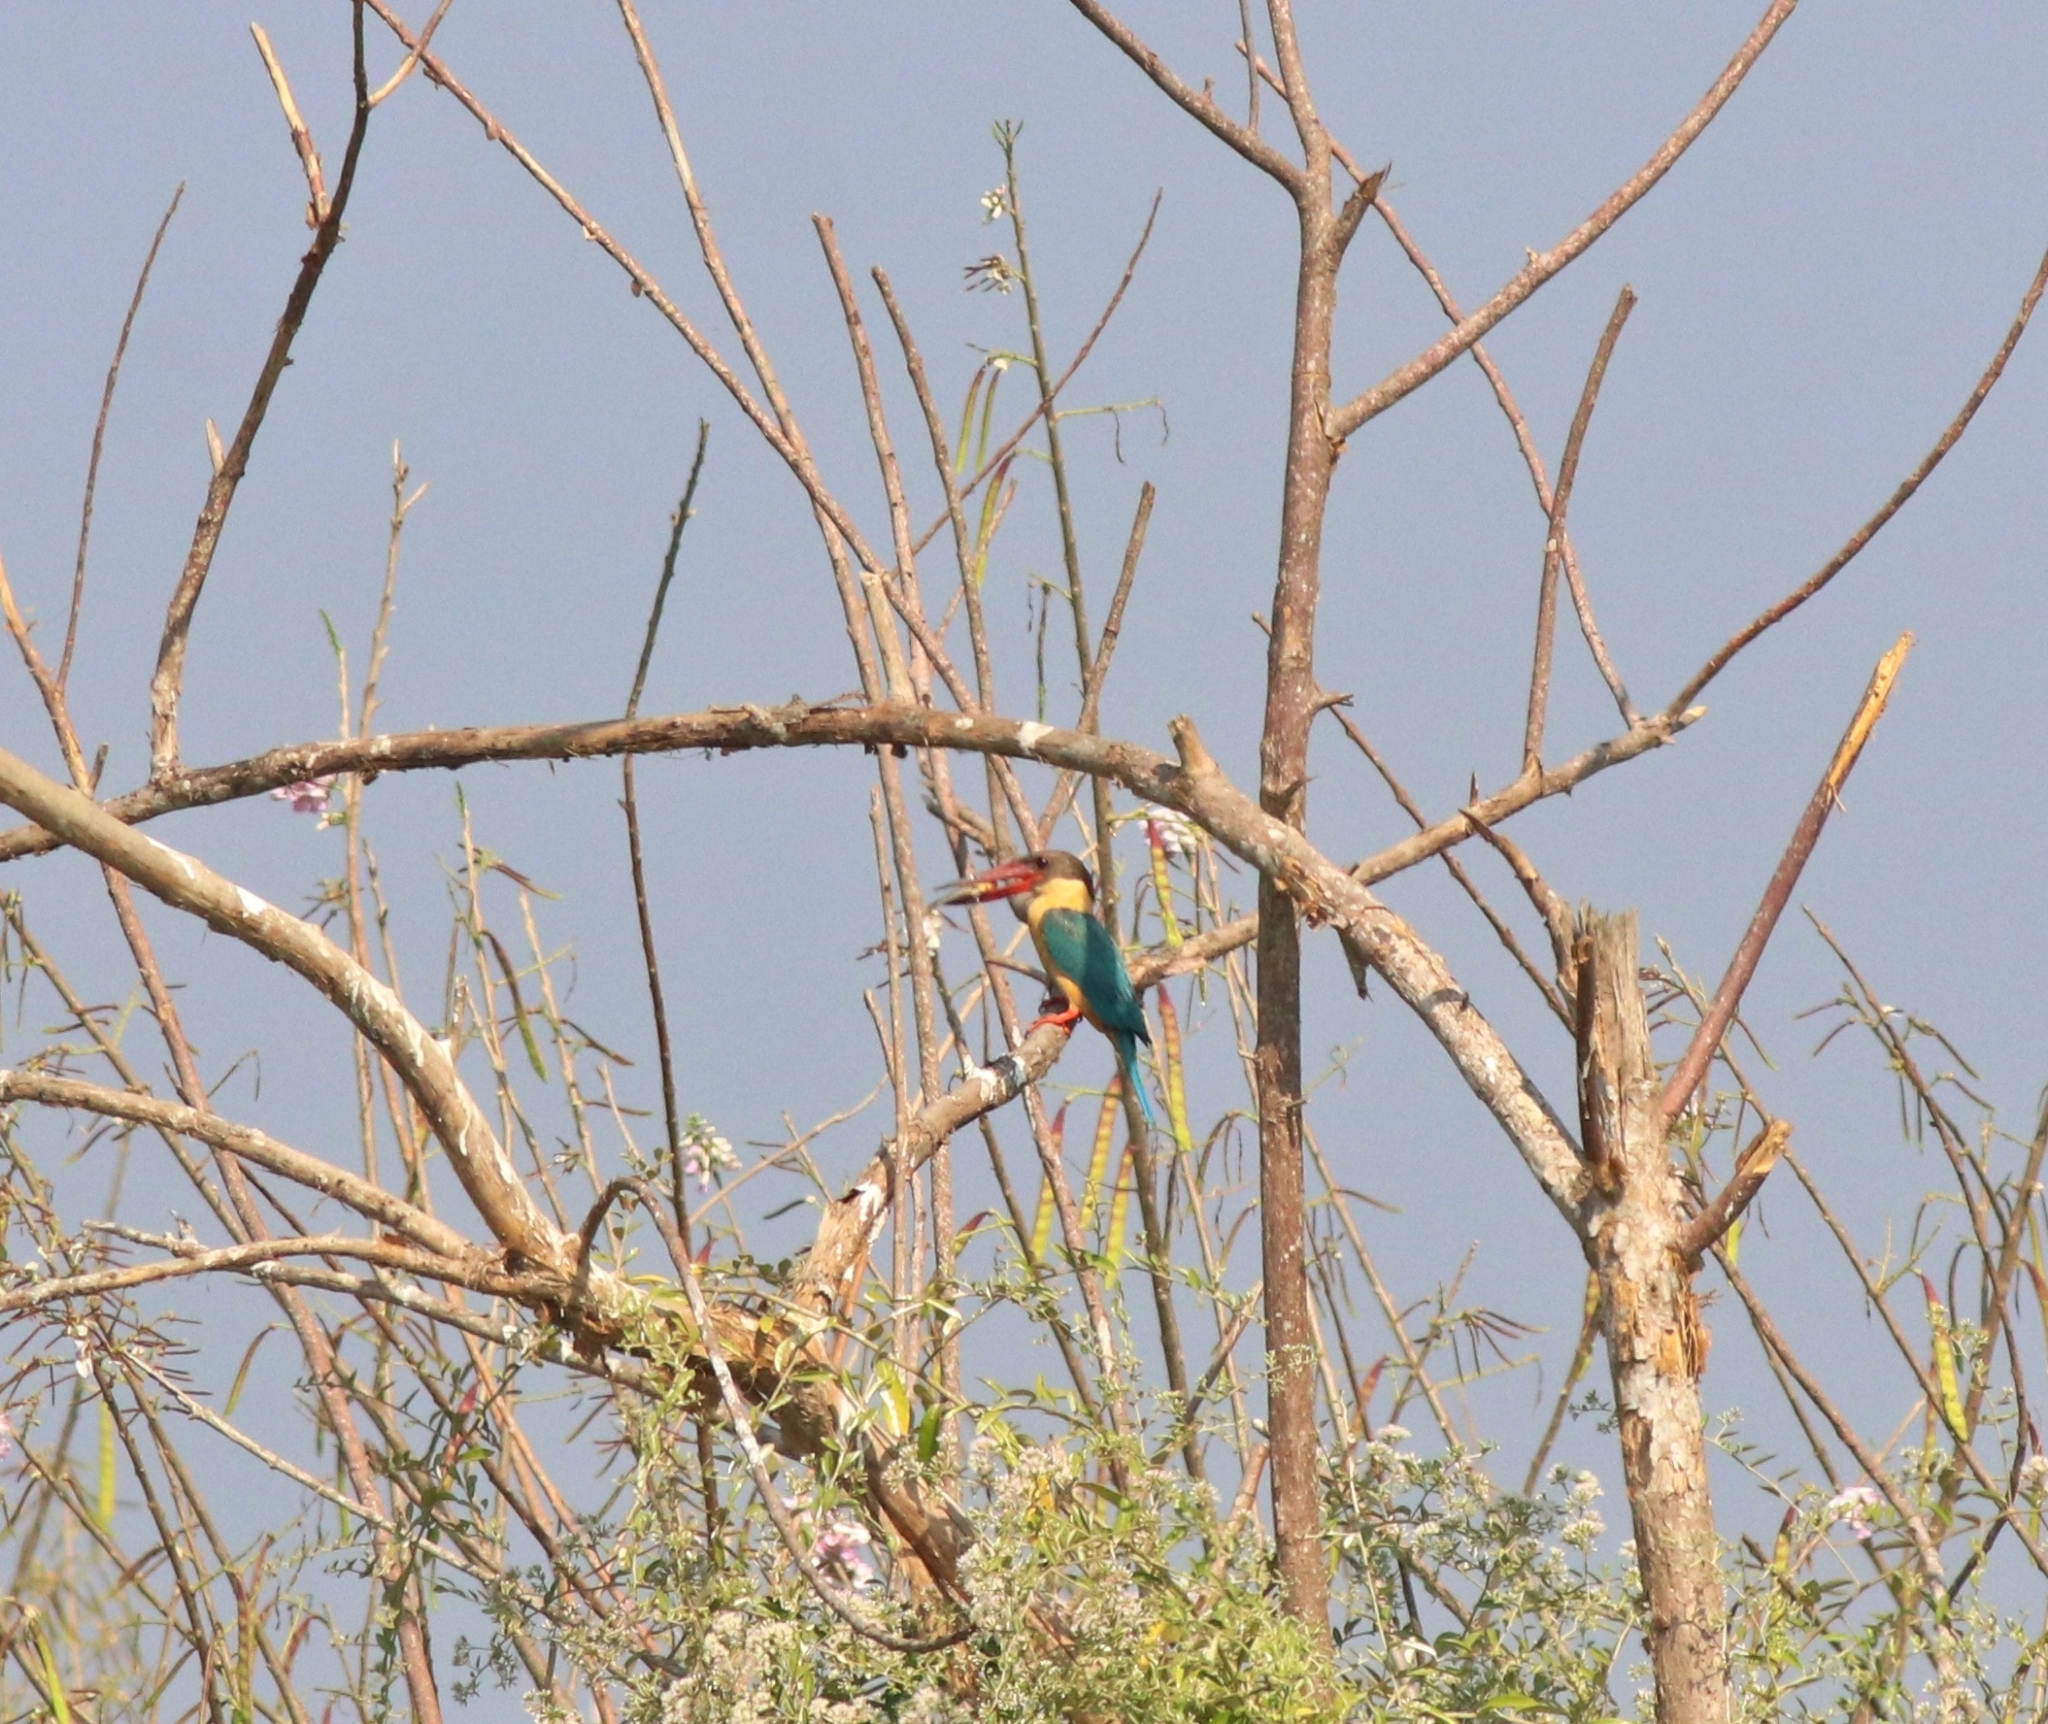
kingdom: Animalia
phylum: Chordata
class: Aves
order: Coraciiformes
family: Alcedinidae
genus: Pelargopsis
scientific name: Pelargopsis capensis
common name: Stork-billed kingfisher
